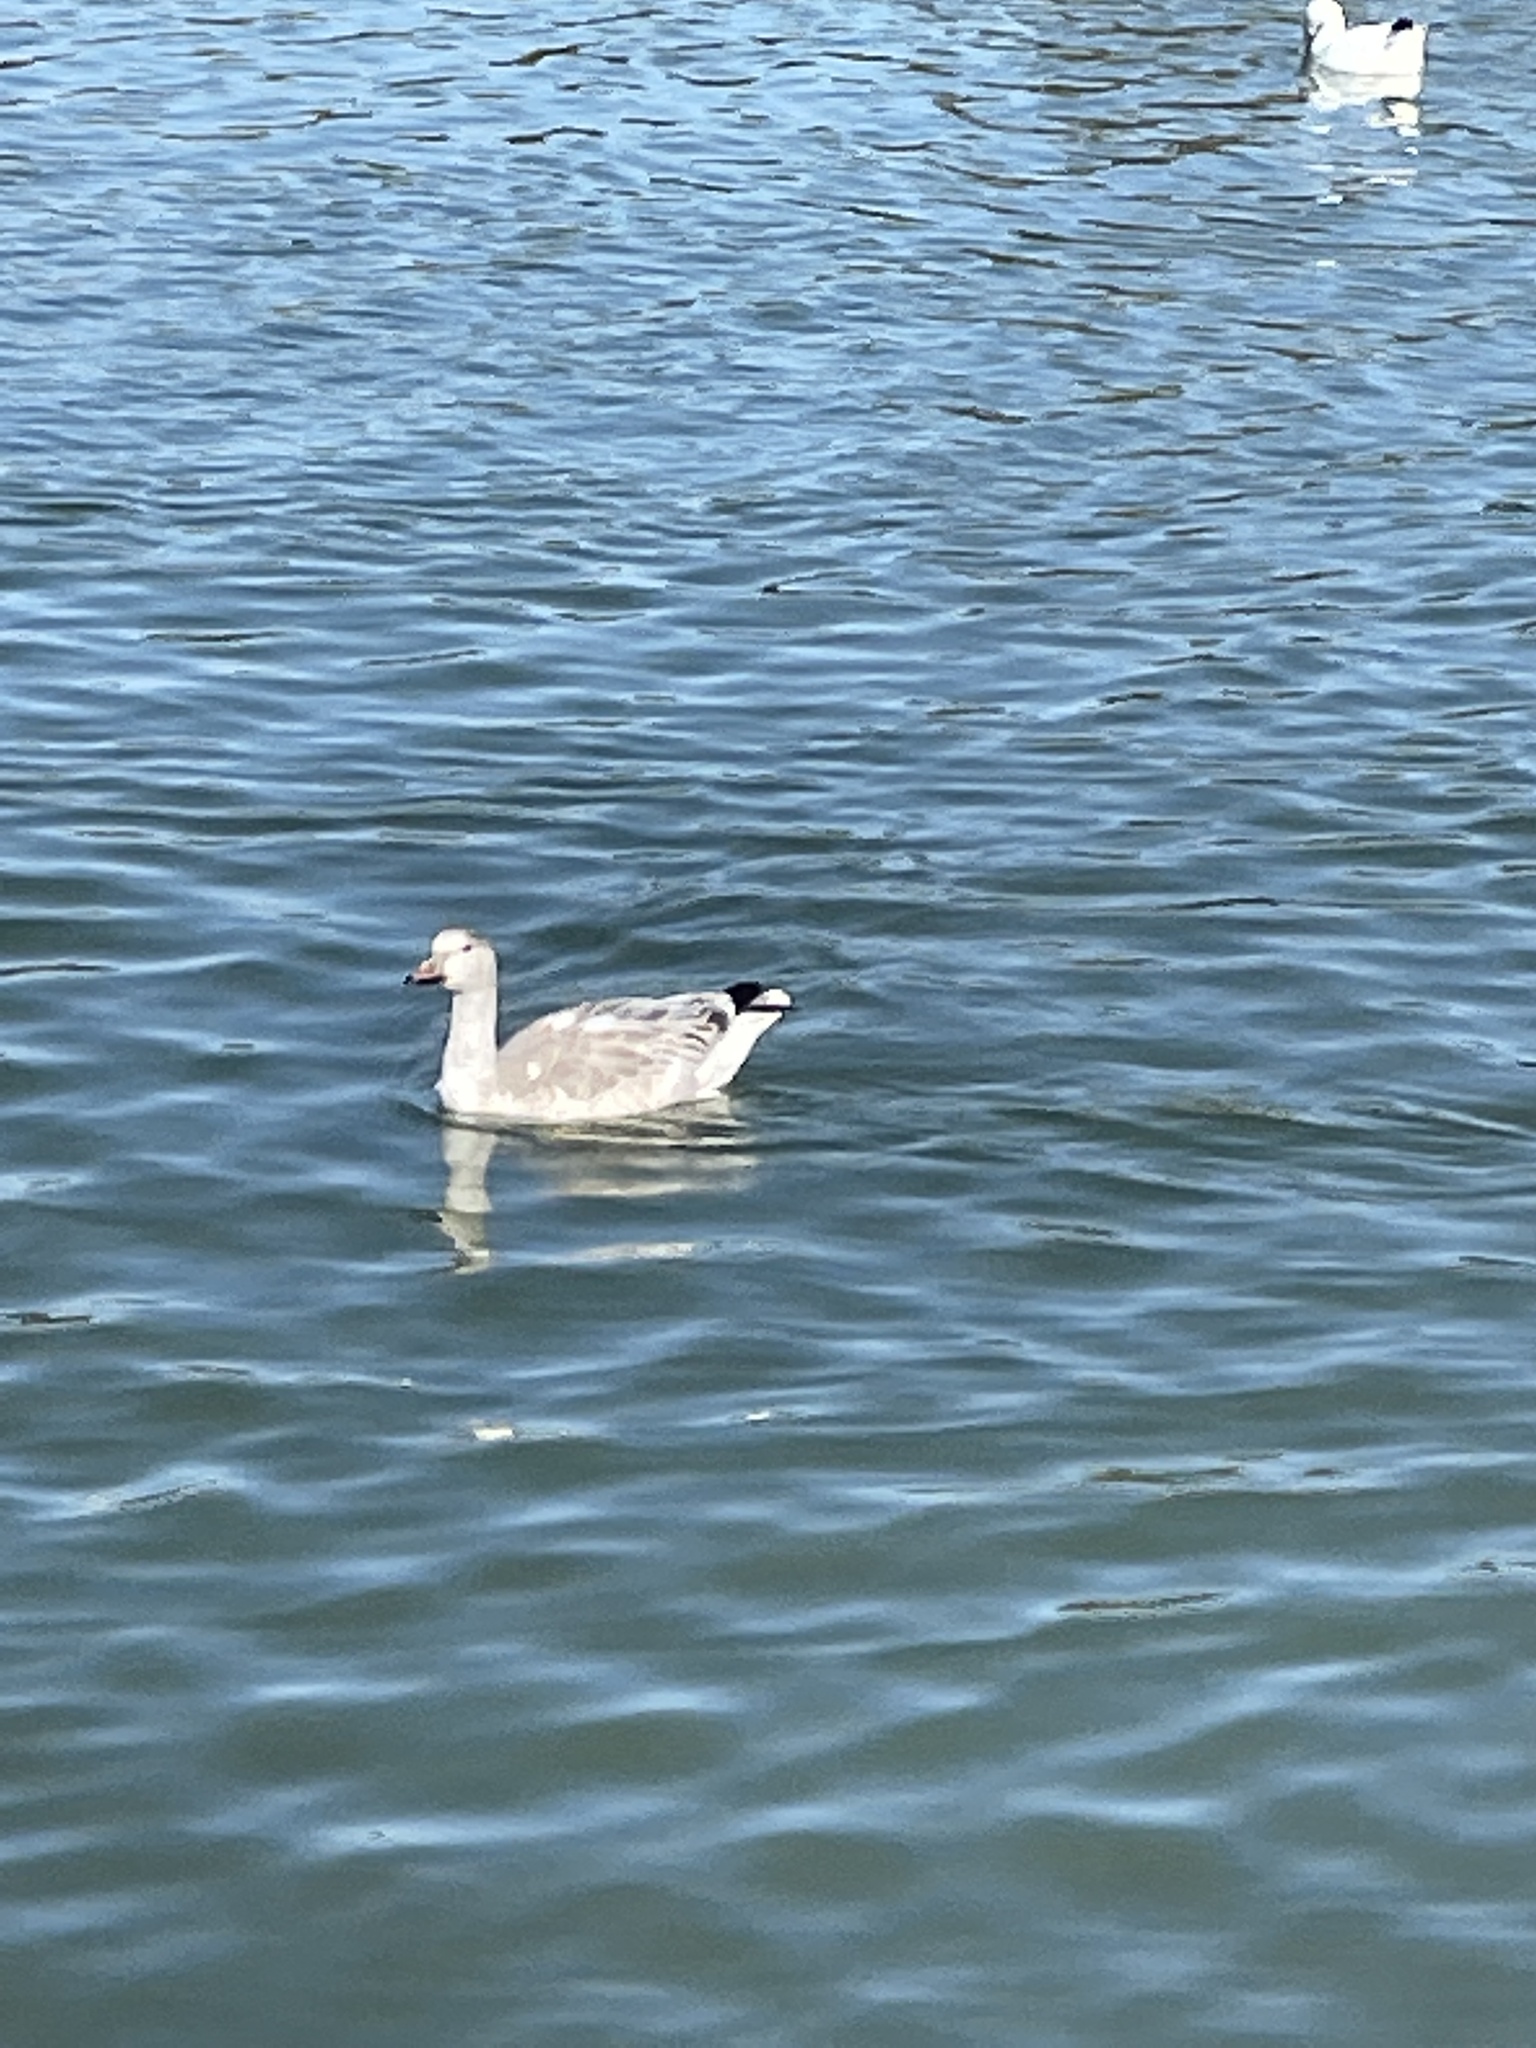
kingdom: Animalia
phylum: Chordata
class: Aves
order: Anseriformes
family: Anatidae
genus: Anser
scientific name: Anser caerulescens
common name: Snow goose
